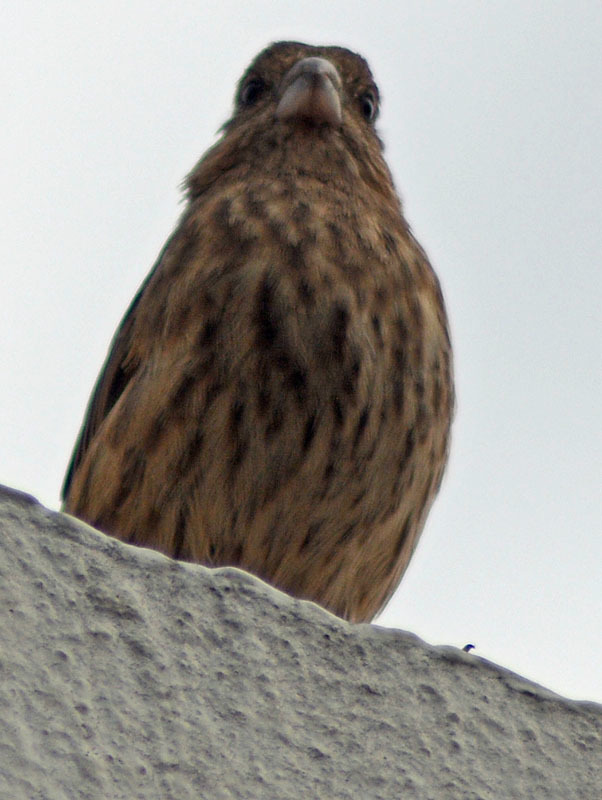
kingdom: Animalia
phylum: Chordata
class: Aves
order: Passeriformes
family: Fringillidae
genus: Haemorhous
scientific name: Haemorhous mexicanus
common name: House finch
